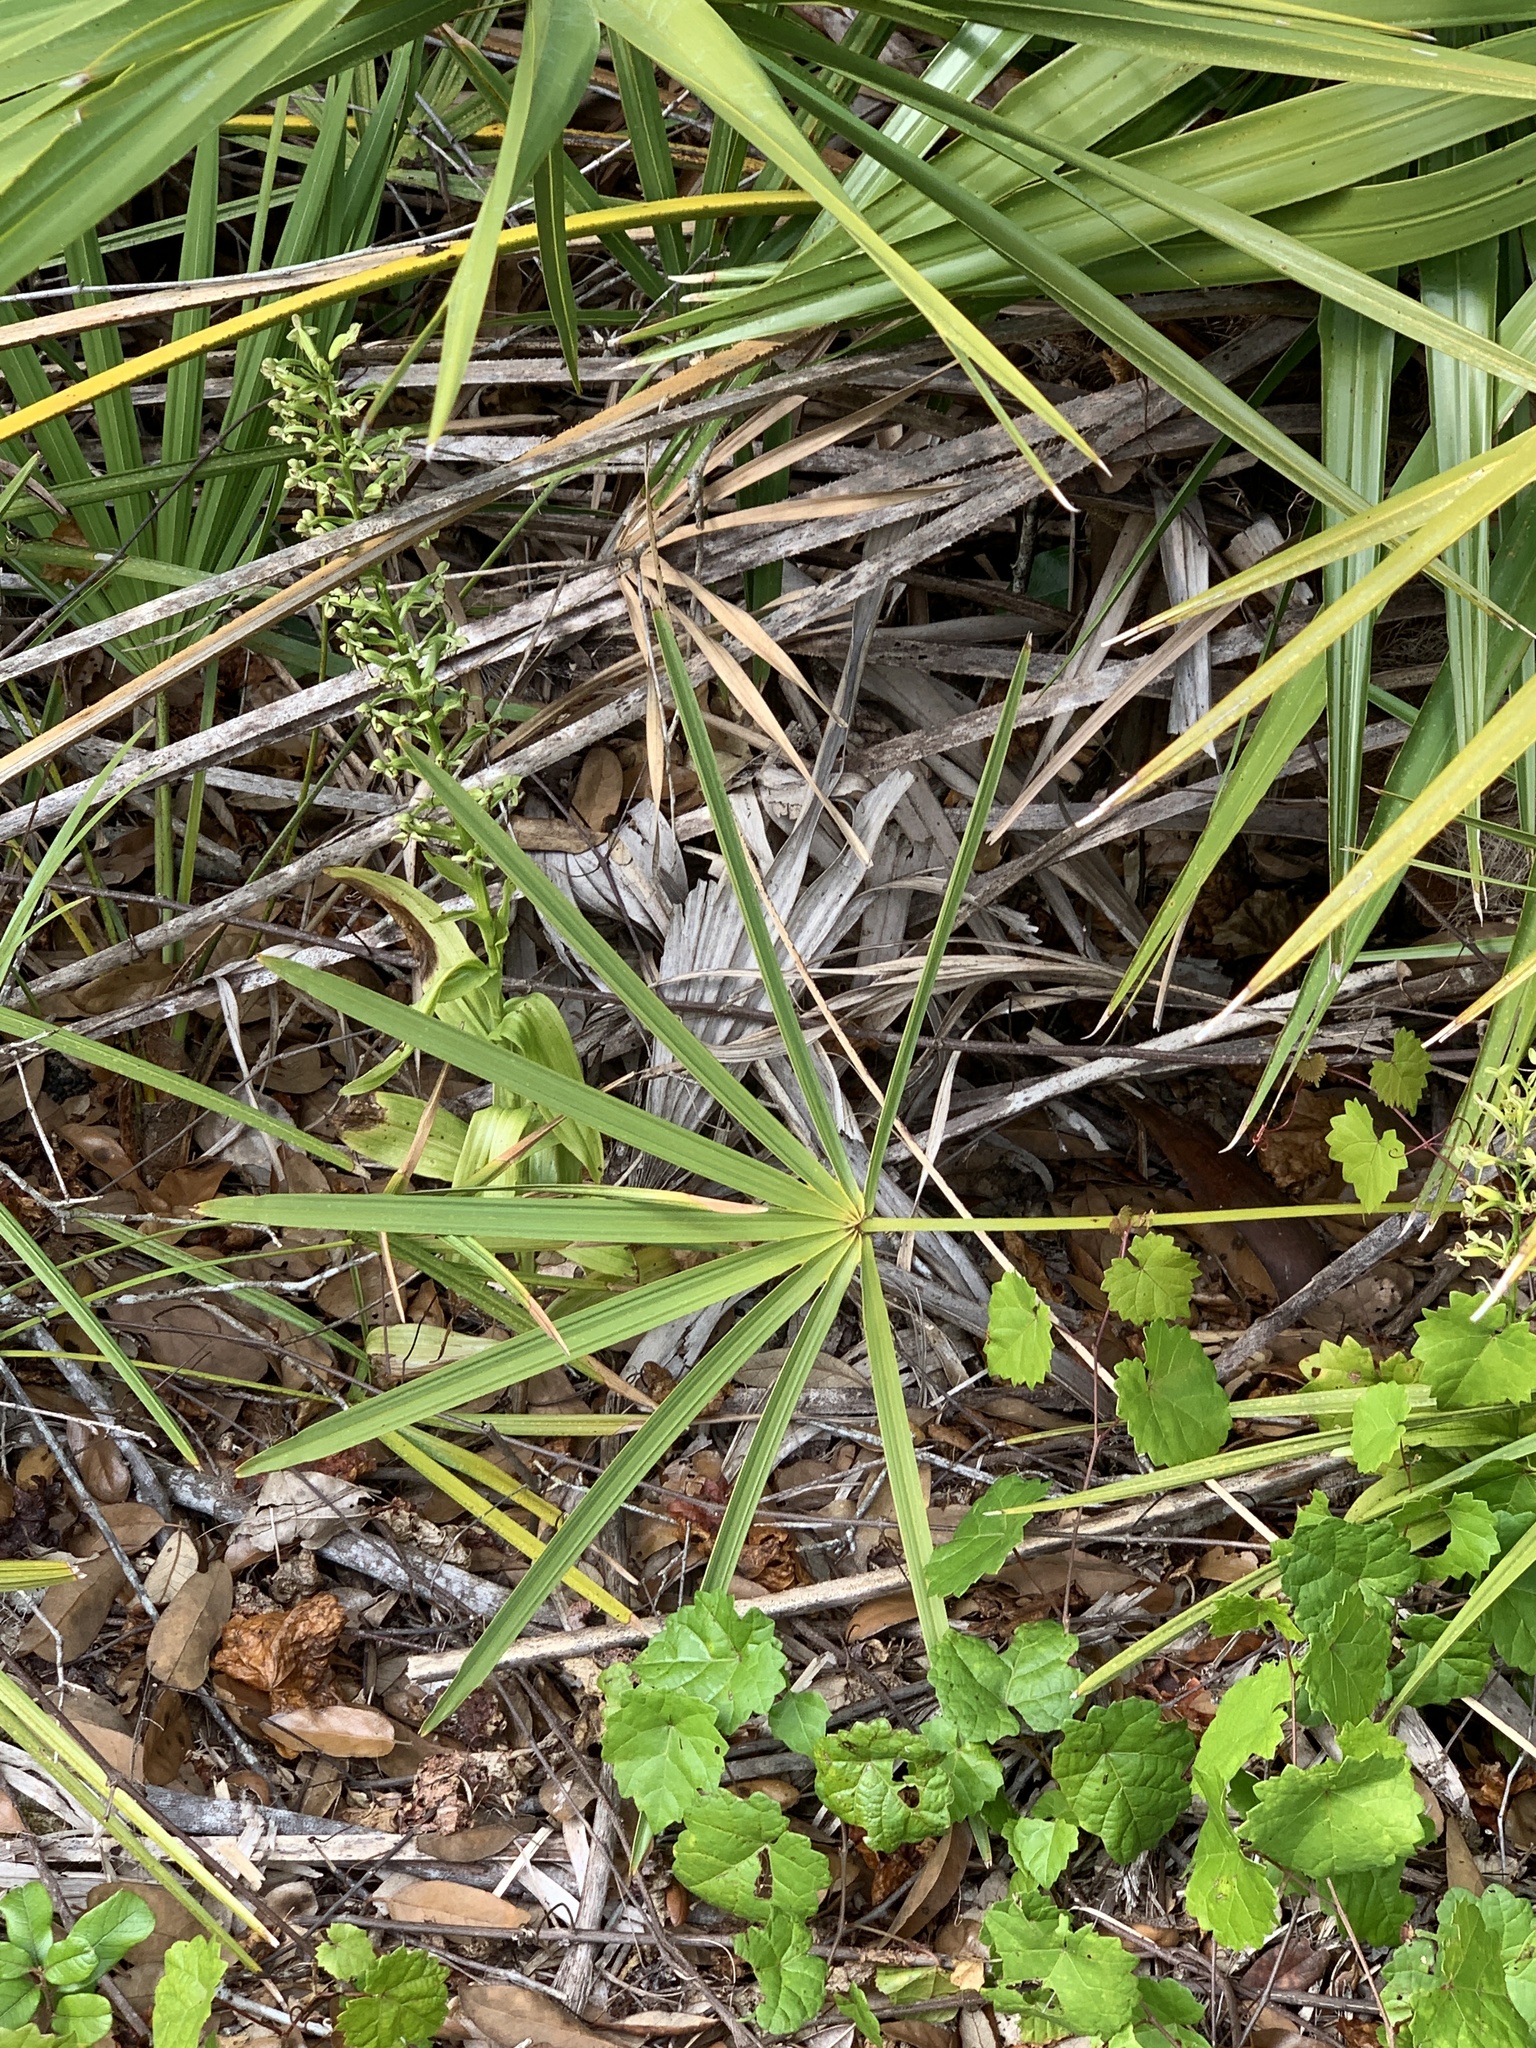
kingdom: Plantae
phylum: Tracheophyta
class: Liliopsida
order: Asparagales
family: Orchidaceae
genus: Habenaria
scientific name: Habenaria floribunda
